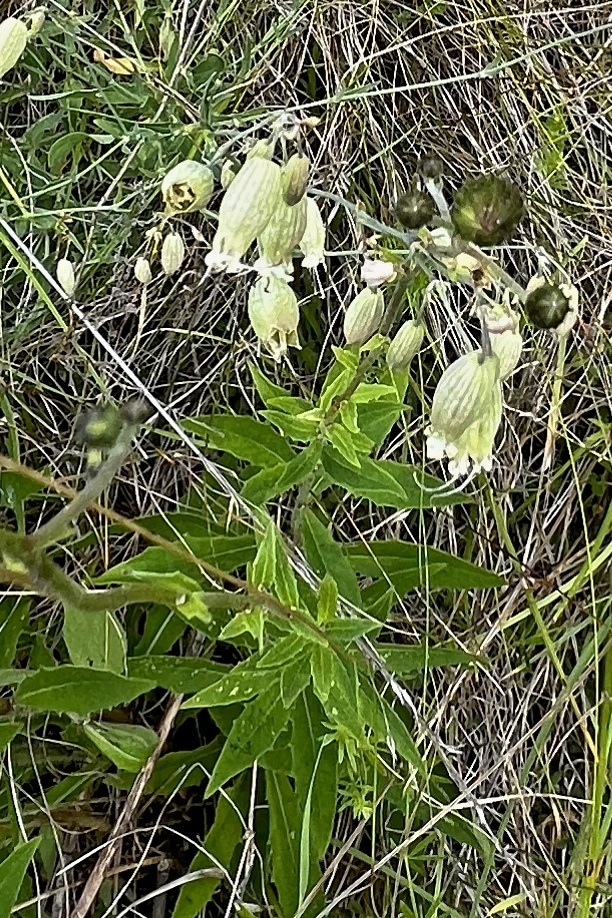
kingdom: Plantae
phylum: Tracheophyta
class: Magnoliopsida
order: Caryophyllales
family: Caryophyllaceae
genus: Silene
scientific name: Silene vulgaris
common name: Bladder campion
